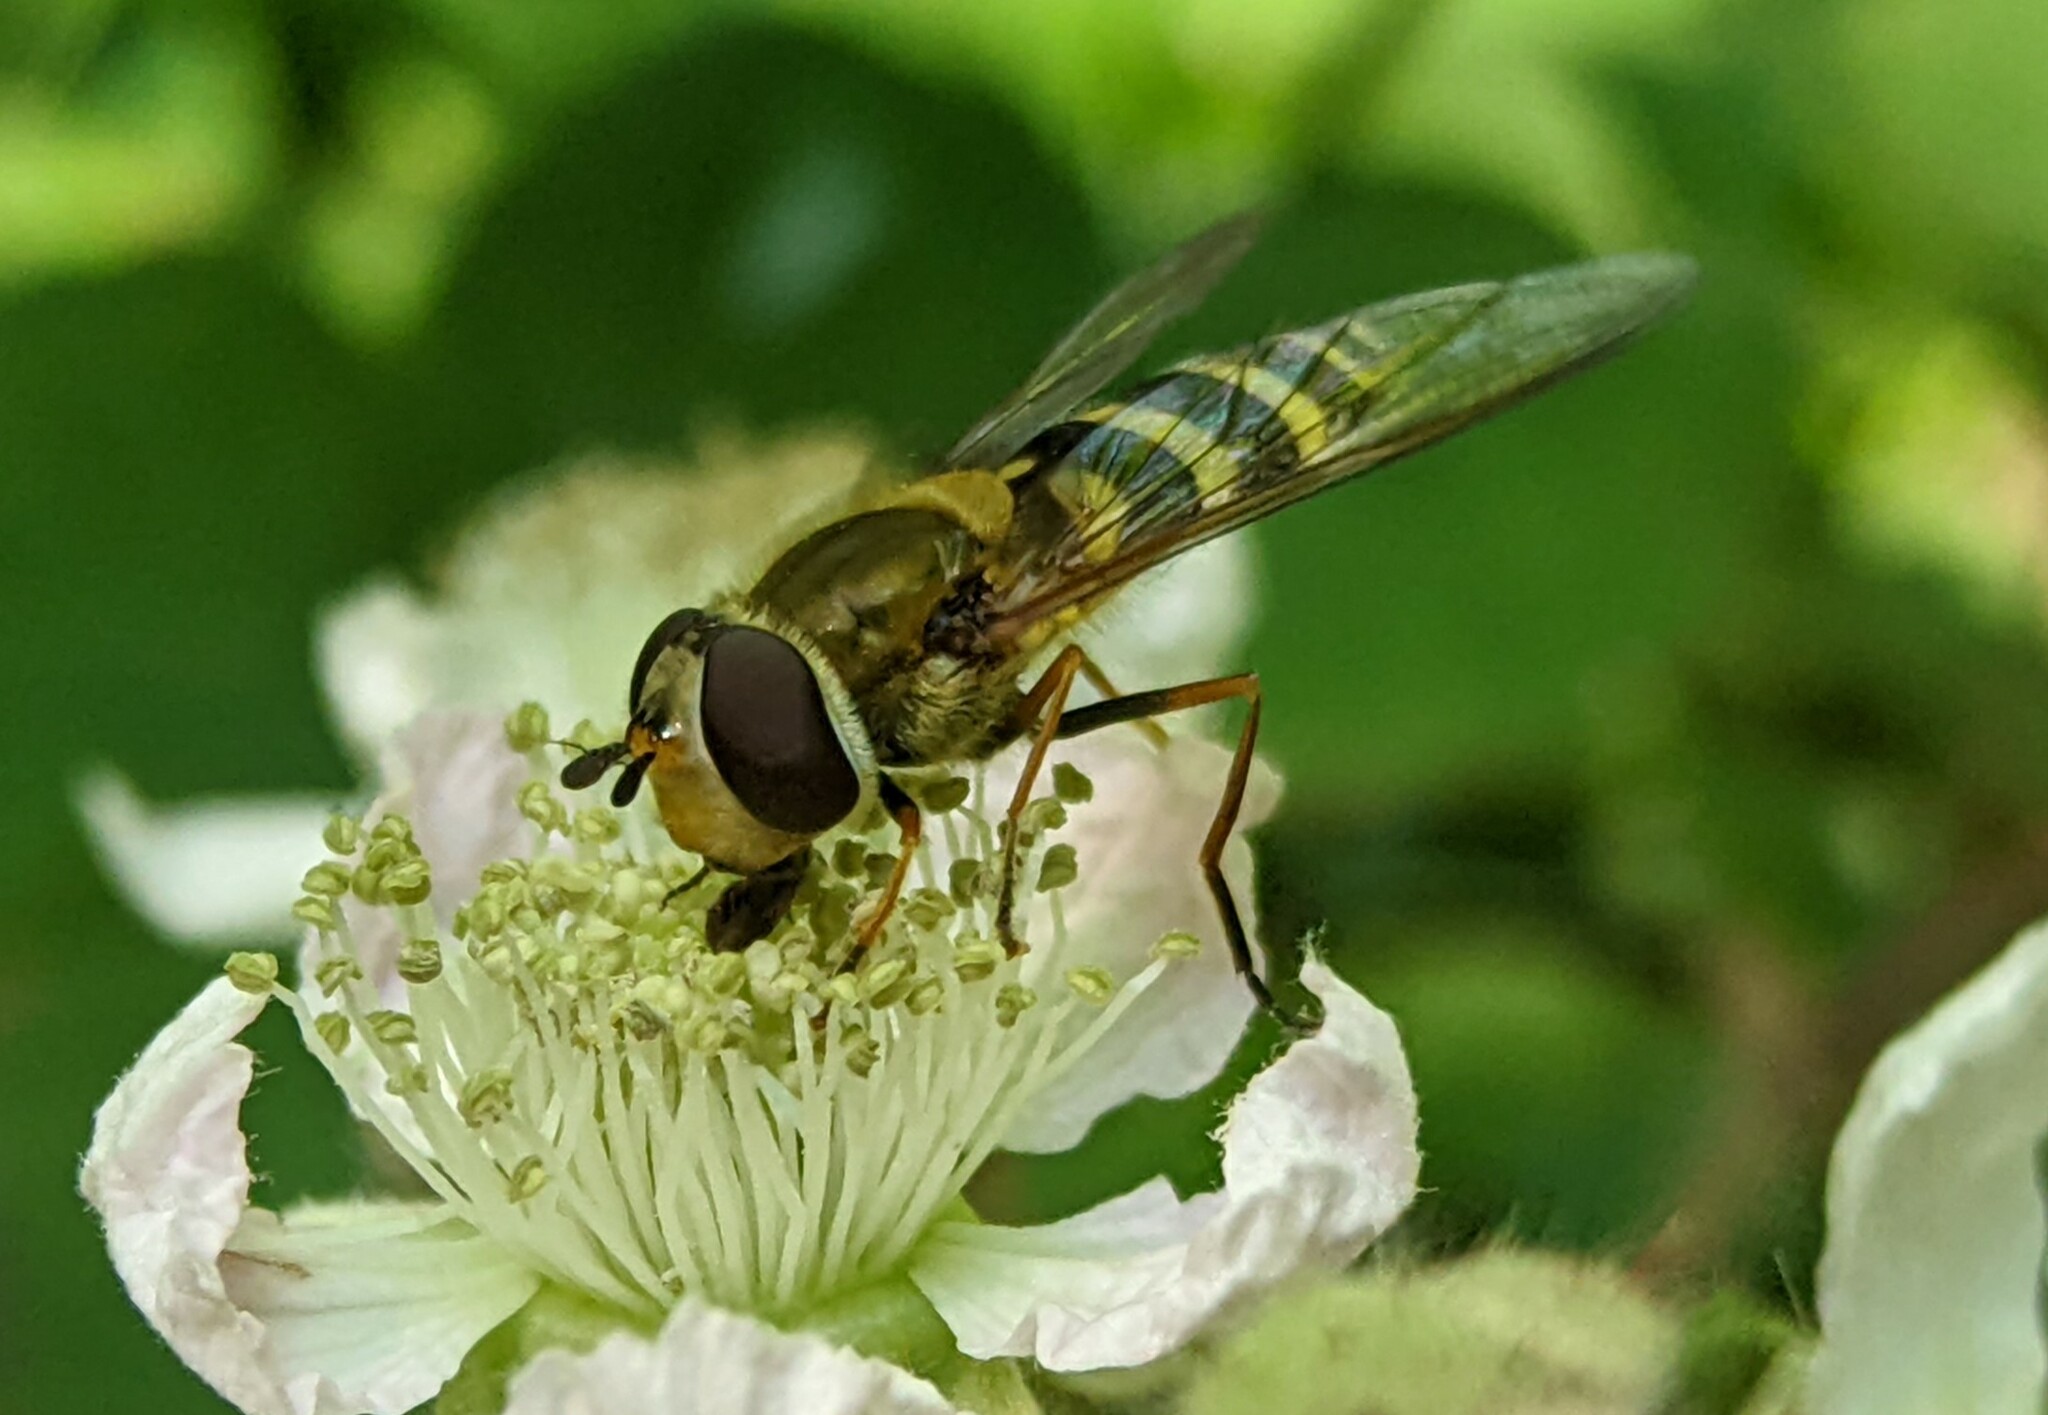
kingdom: Animalia
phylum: Arthropoda
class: Insecta
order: Diptera
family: Syrphidae
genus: Syrphus
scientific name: Syrphus
